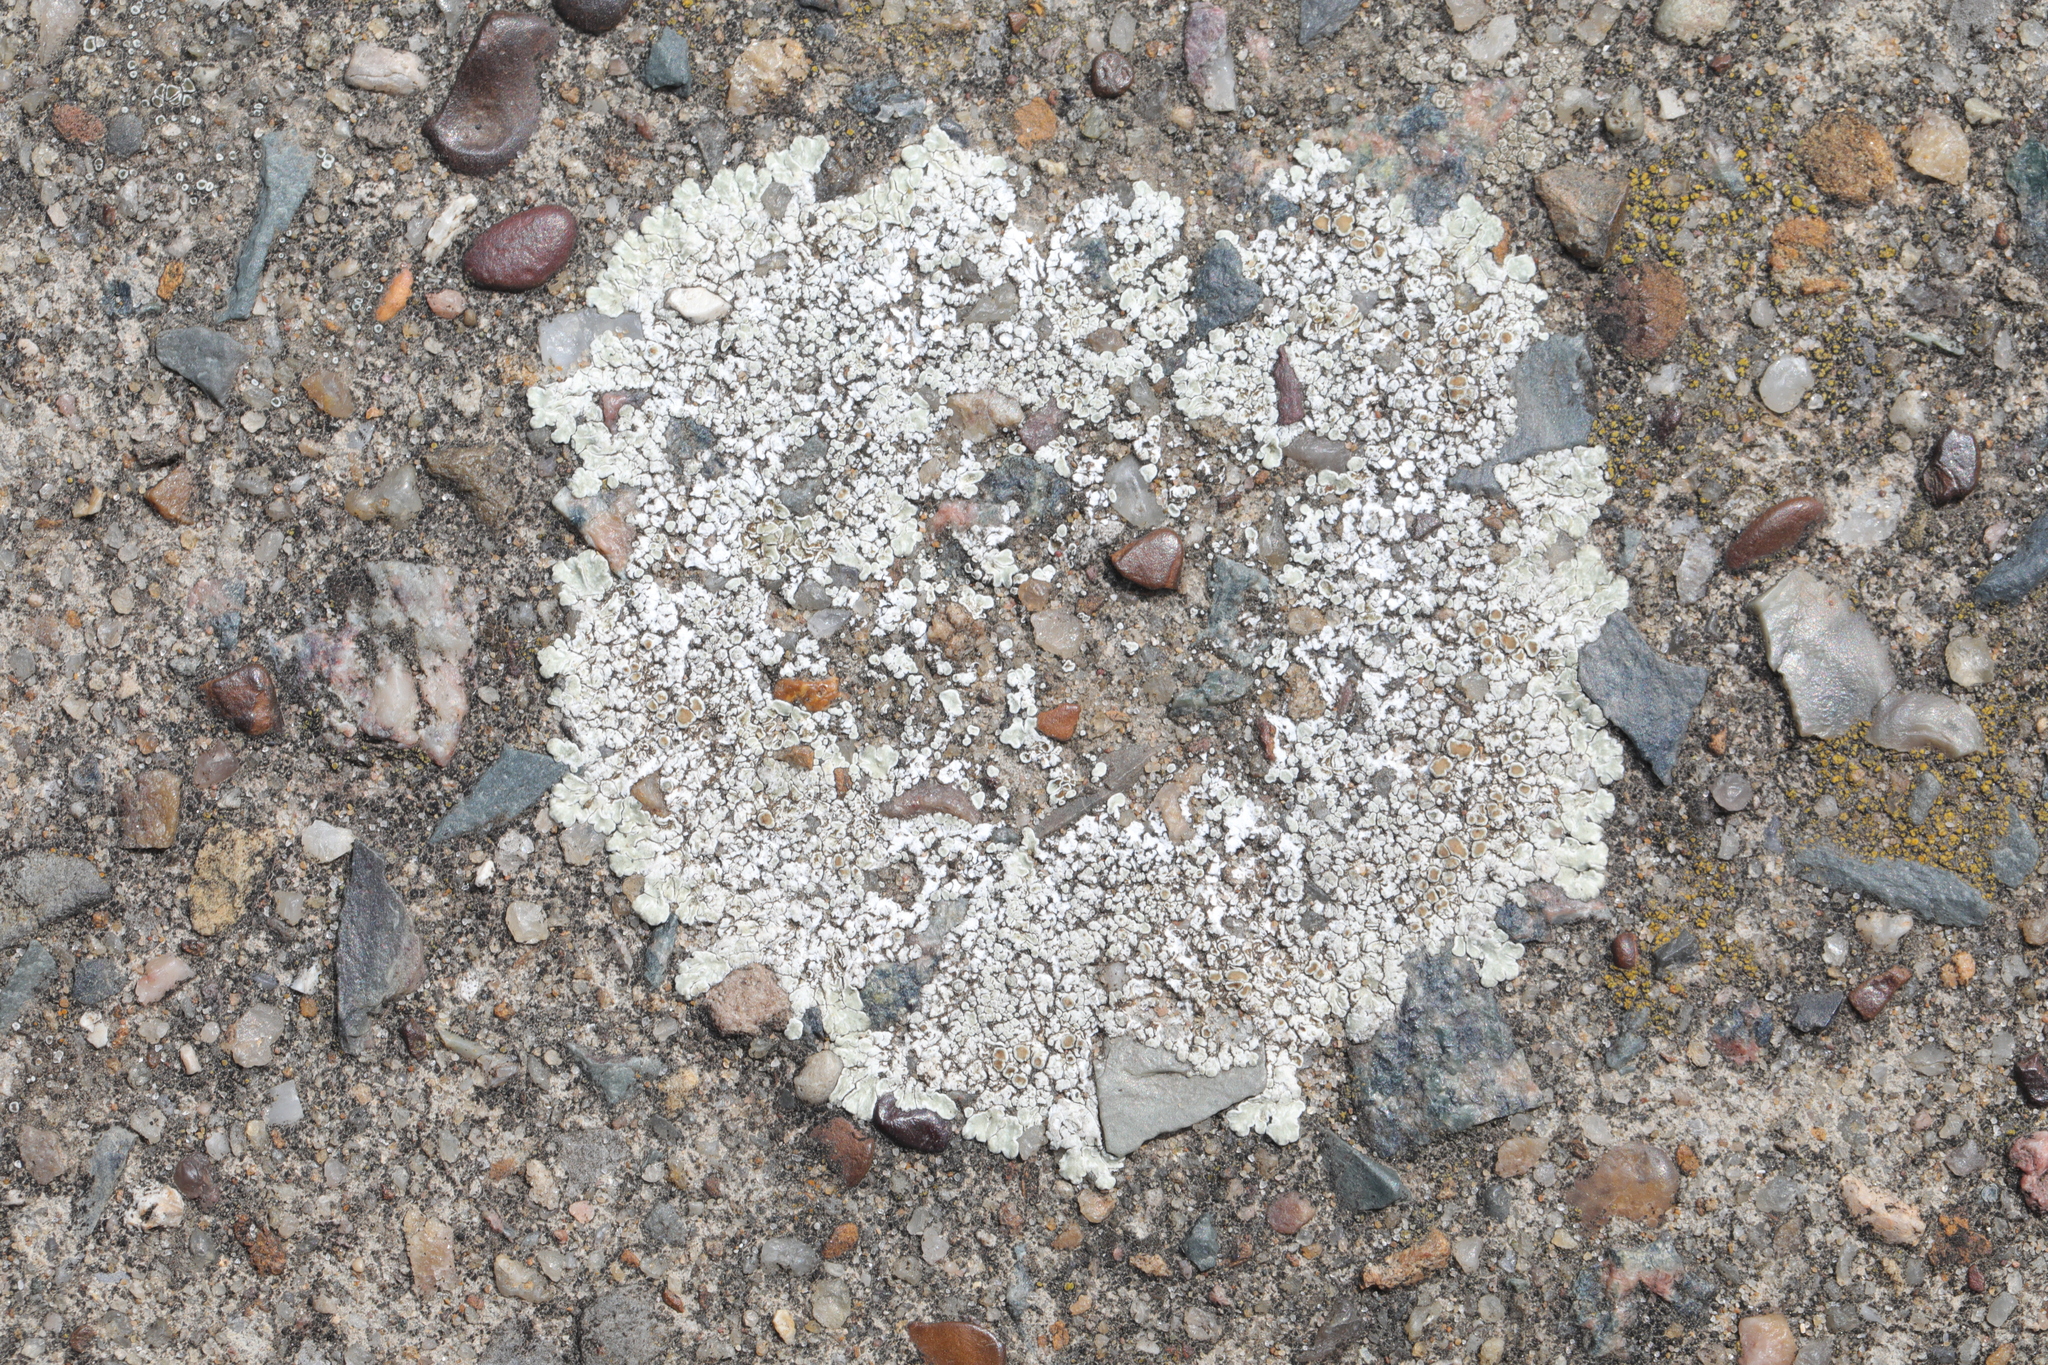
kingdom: Fungi
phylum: Ascomycota
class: Lecanoromycetes
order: Lecanorales
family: Lecanoraceae
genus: Protoparmeliopsis
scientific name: Protoparmeliopsis muralis
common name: Stonewall rim lichen
